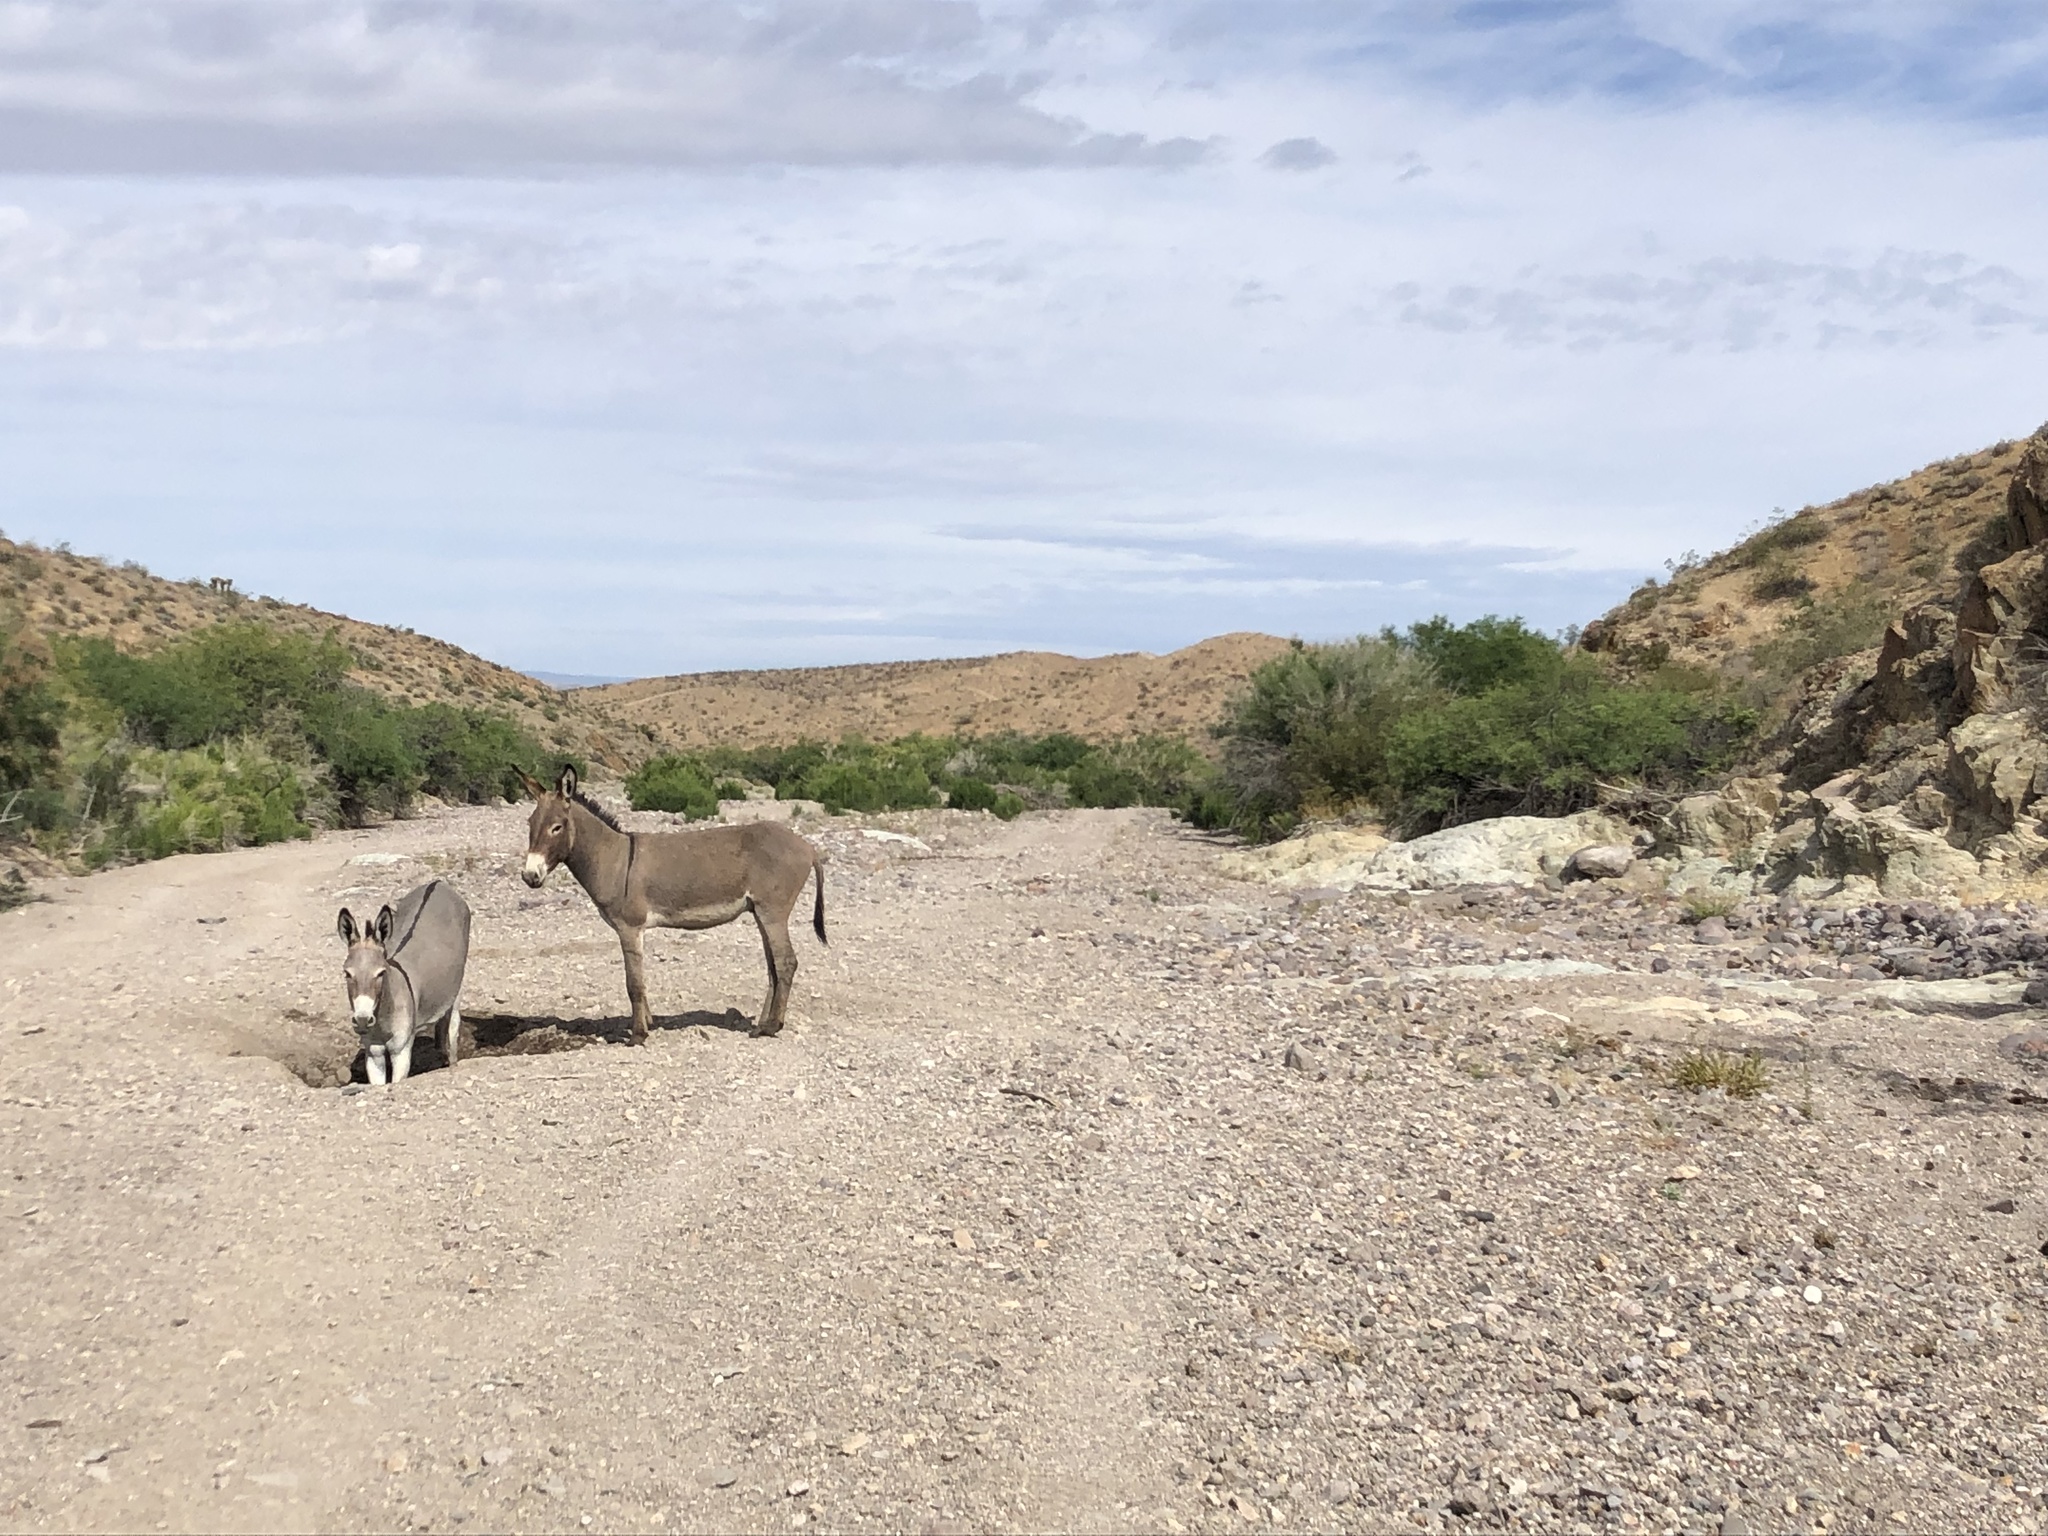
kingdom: Animalia
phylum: Chordata
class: Mammalia
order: Perissodactyla
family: Equidae
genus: Equus
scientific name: Equus asinus
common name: Ass
